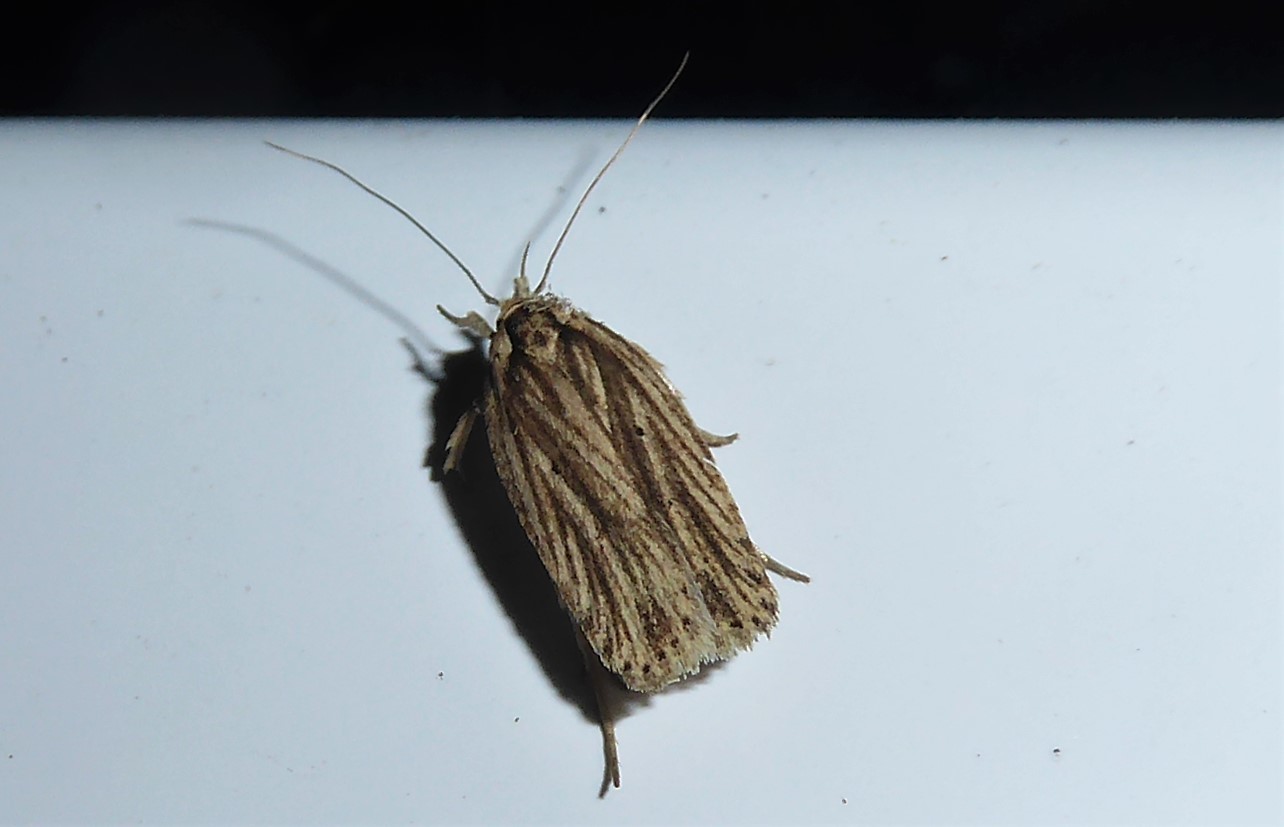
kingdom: Animalia
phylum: Arthropoda
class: Insecta
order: Lepidoptera
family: Depressariidae
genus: Agonopterix
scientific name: Agonopterix
